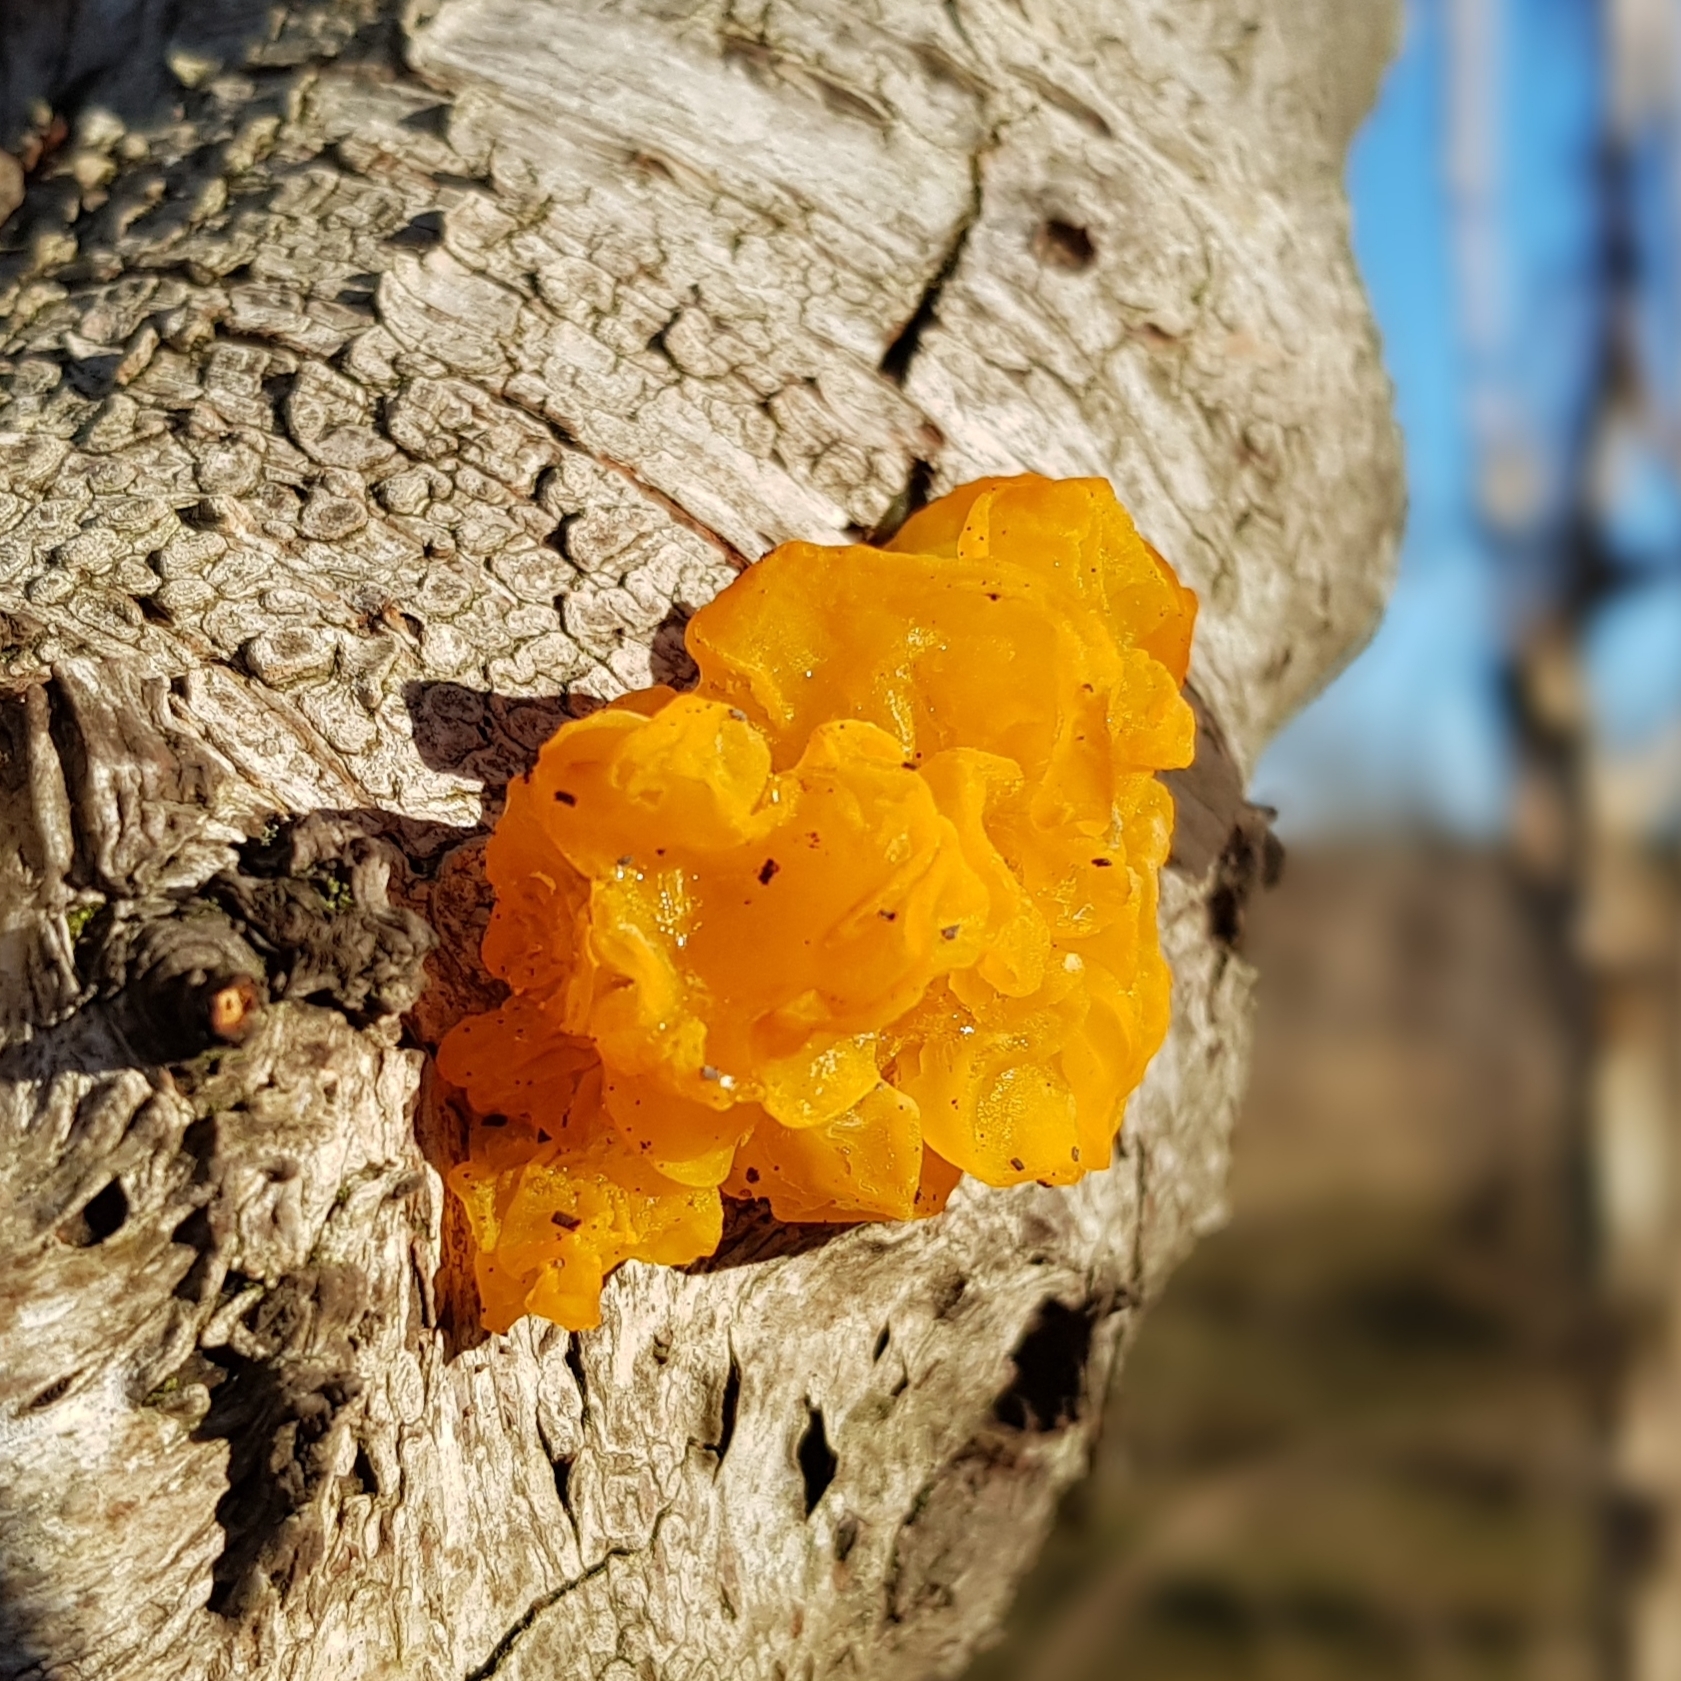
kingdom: Fungi
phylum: Basidiomycota
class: Tremellomycetes
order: Tremellales
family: Tremellaceae
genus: Tremella
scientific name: Tremella mesenterica
